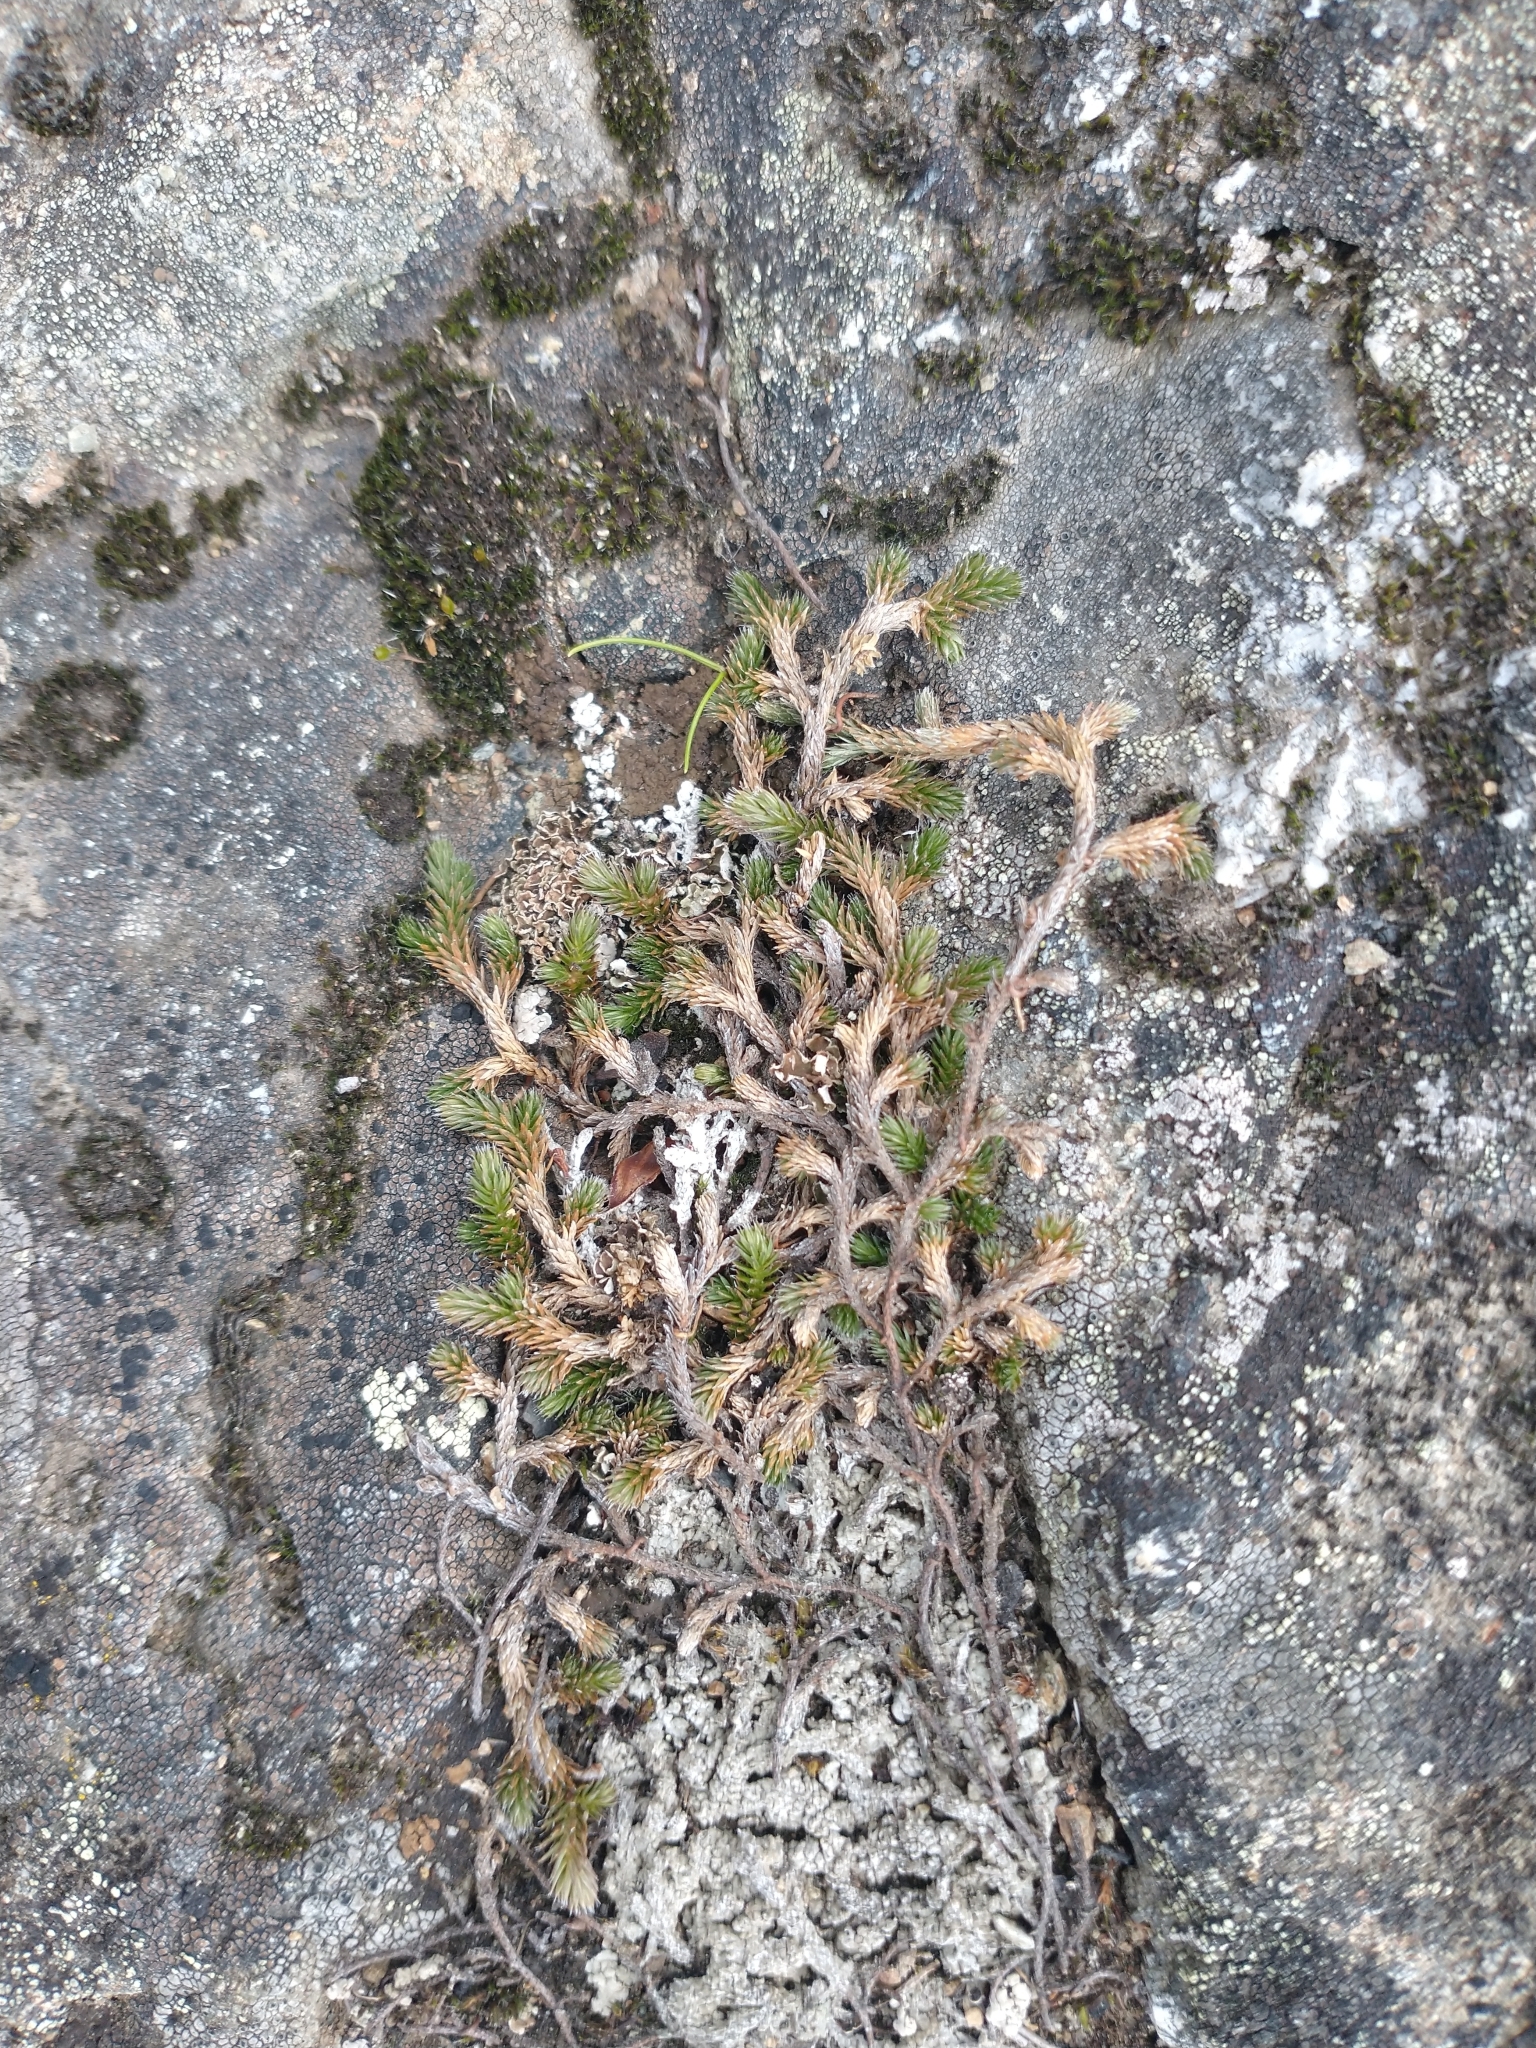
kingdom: Plantae
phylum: Tracheophyta
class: Lycopodiopsida
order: Selaginellales
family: Selaginellaceae
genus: Selaginella
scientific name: Selaginella wallacei
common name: Wallace's selaginella
